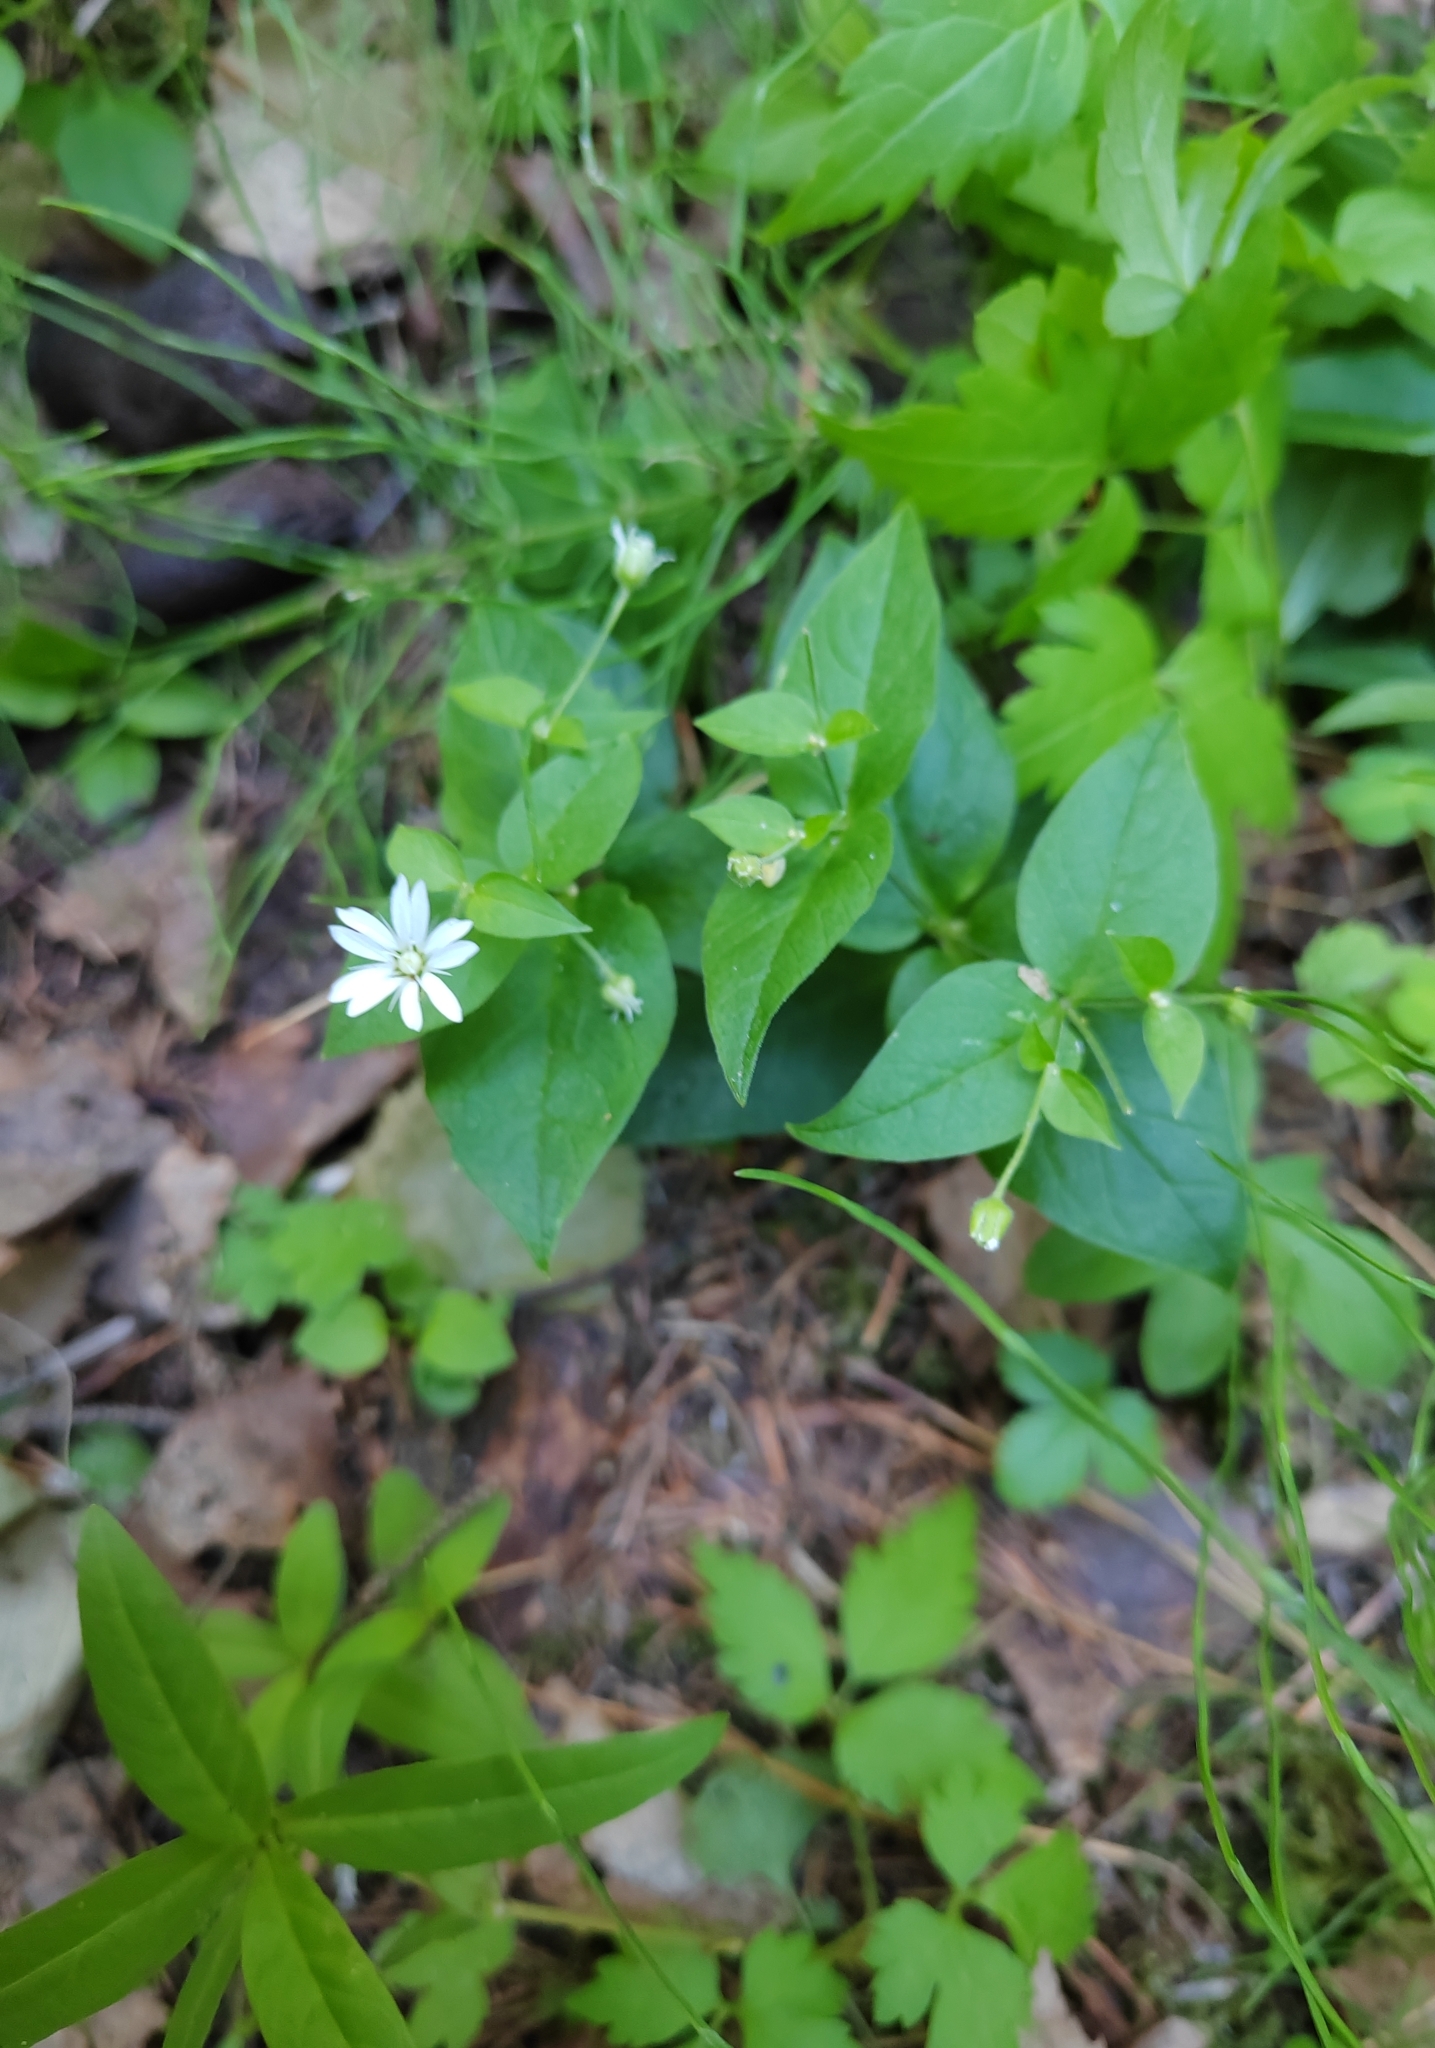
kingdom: Plantae
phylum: Tracheophyta
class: Magnoliopsida
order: Caryophyllales
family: Caryophyllaceae
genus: Stellaria
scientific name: Stellaria bungeana
